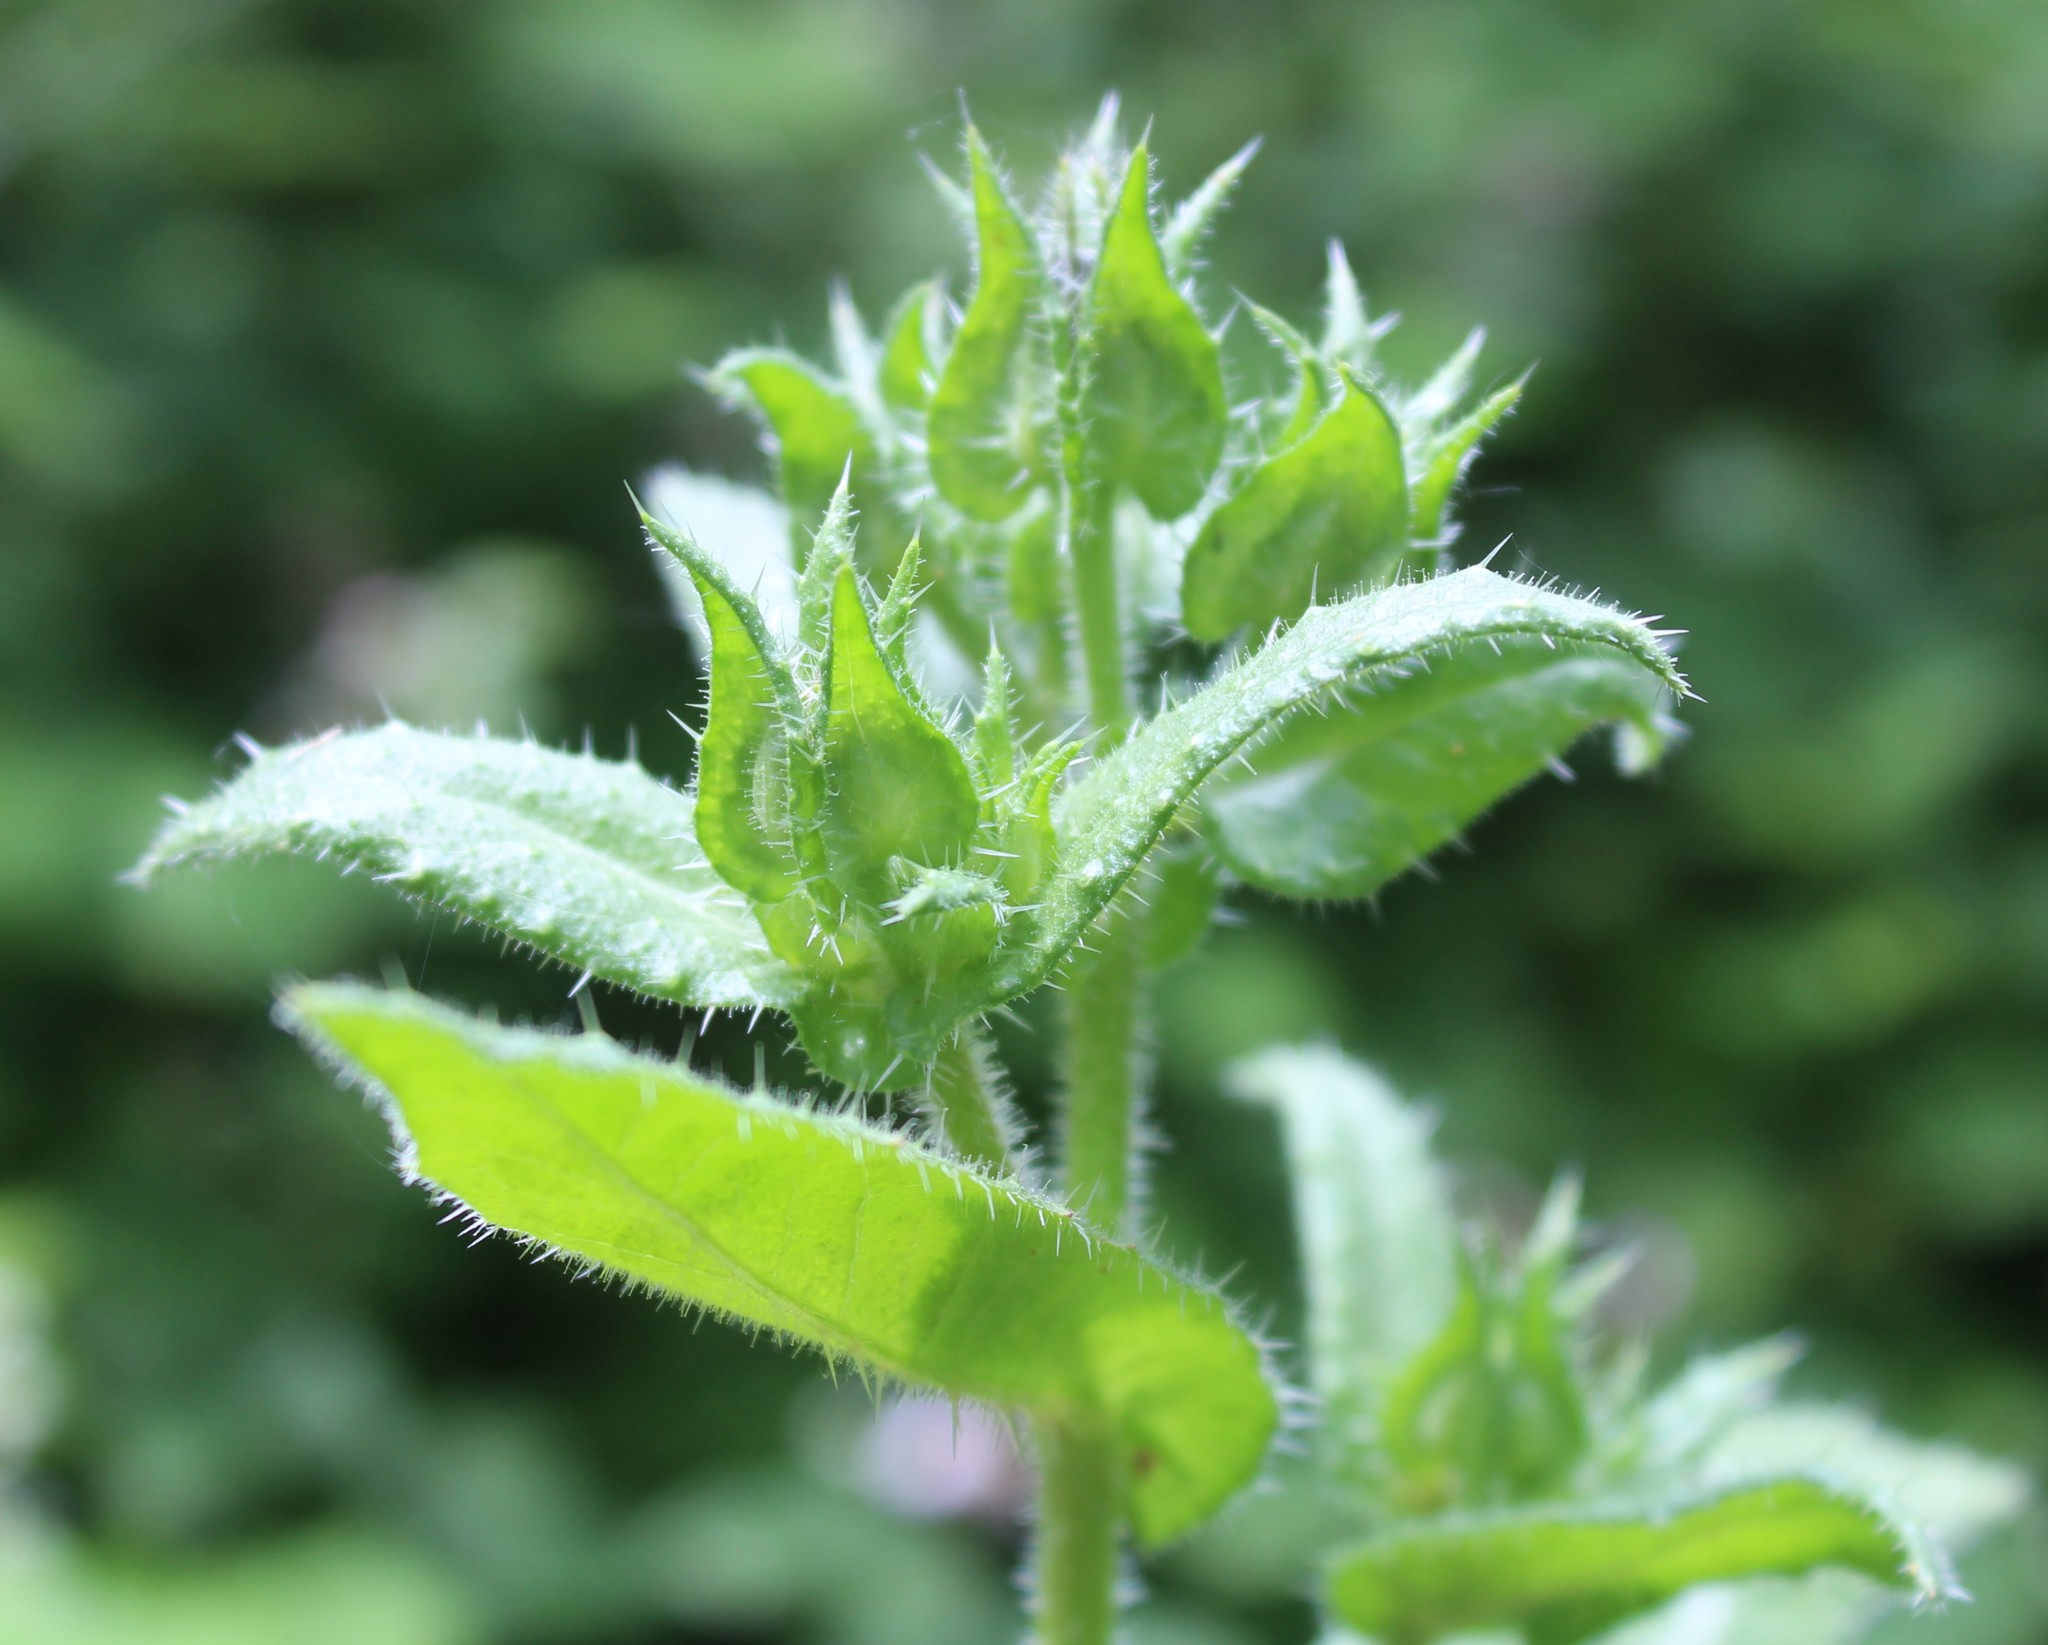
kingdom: Plantae
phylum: Tracheophyta
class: Magnoliopsida
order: Asterales
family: Asteraceae
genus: Helminthotheca
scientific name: Helminthotheca echioides
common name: Ox-tongue
